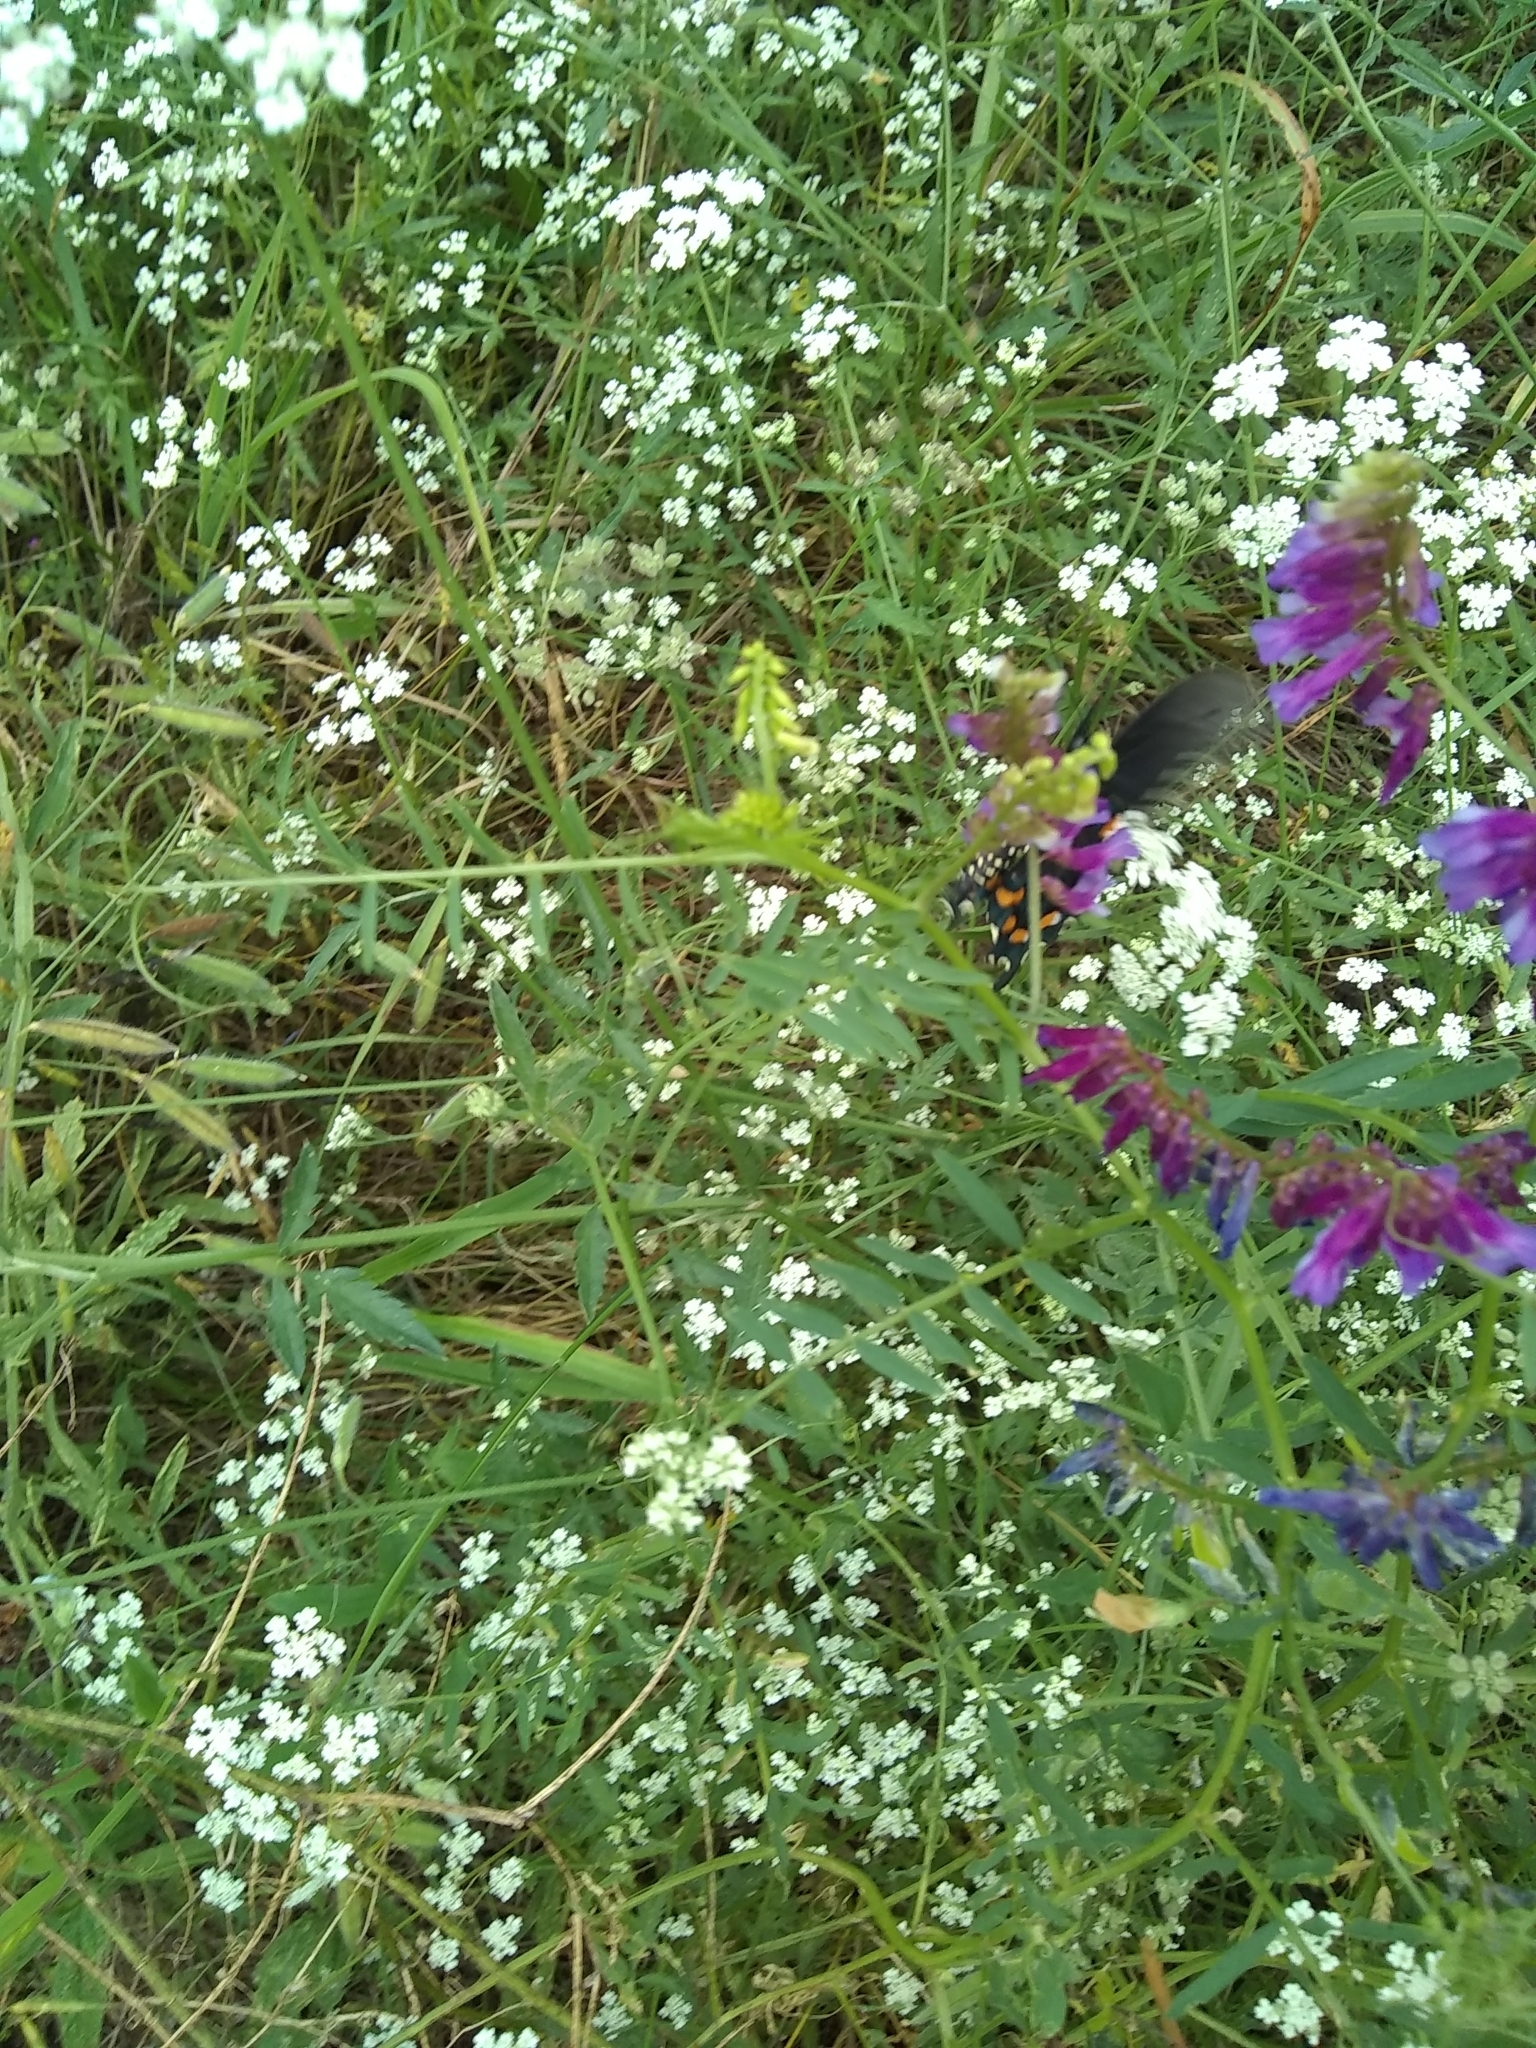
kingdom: Animalia
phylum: Arthropoda
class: Insecta
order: Lepidoptera
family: Papilionidae
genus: Battus
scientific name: Battus philenor
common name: Pipevine swallowtail
